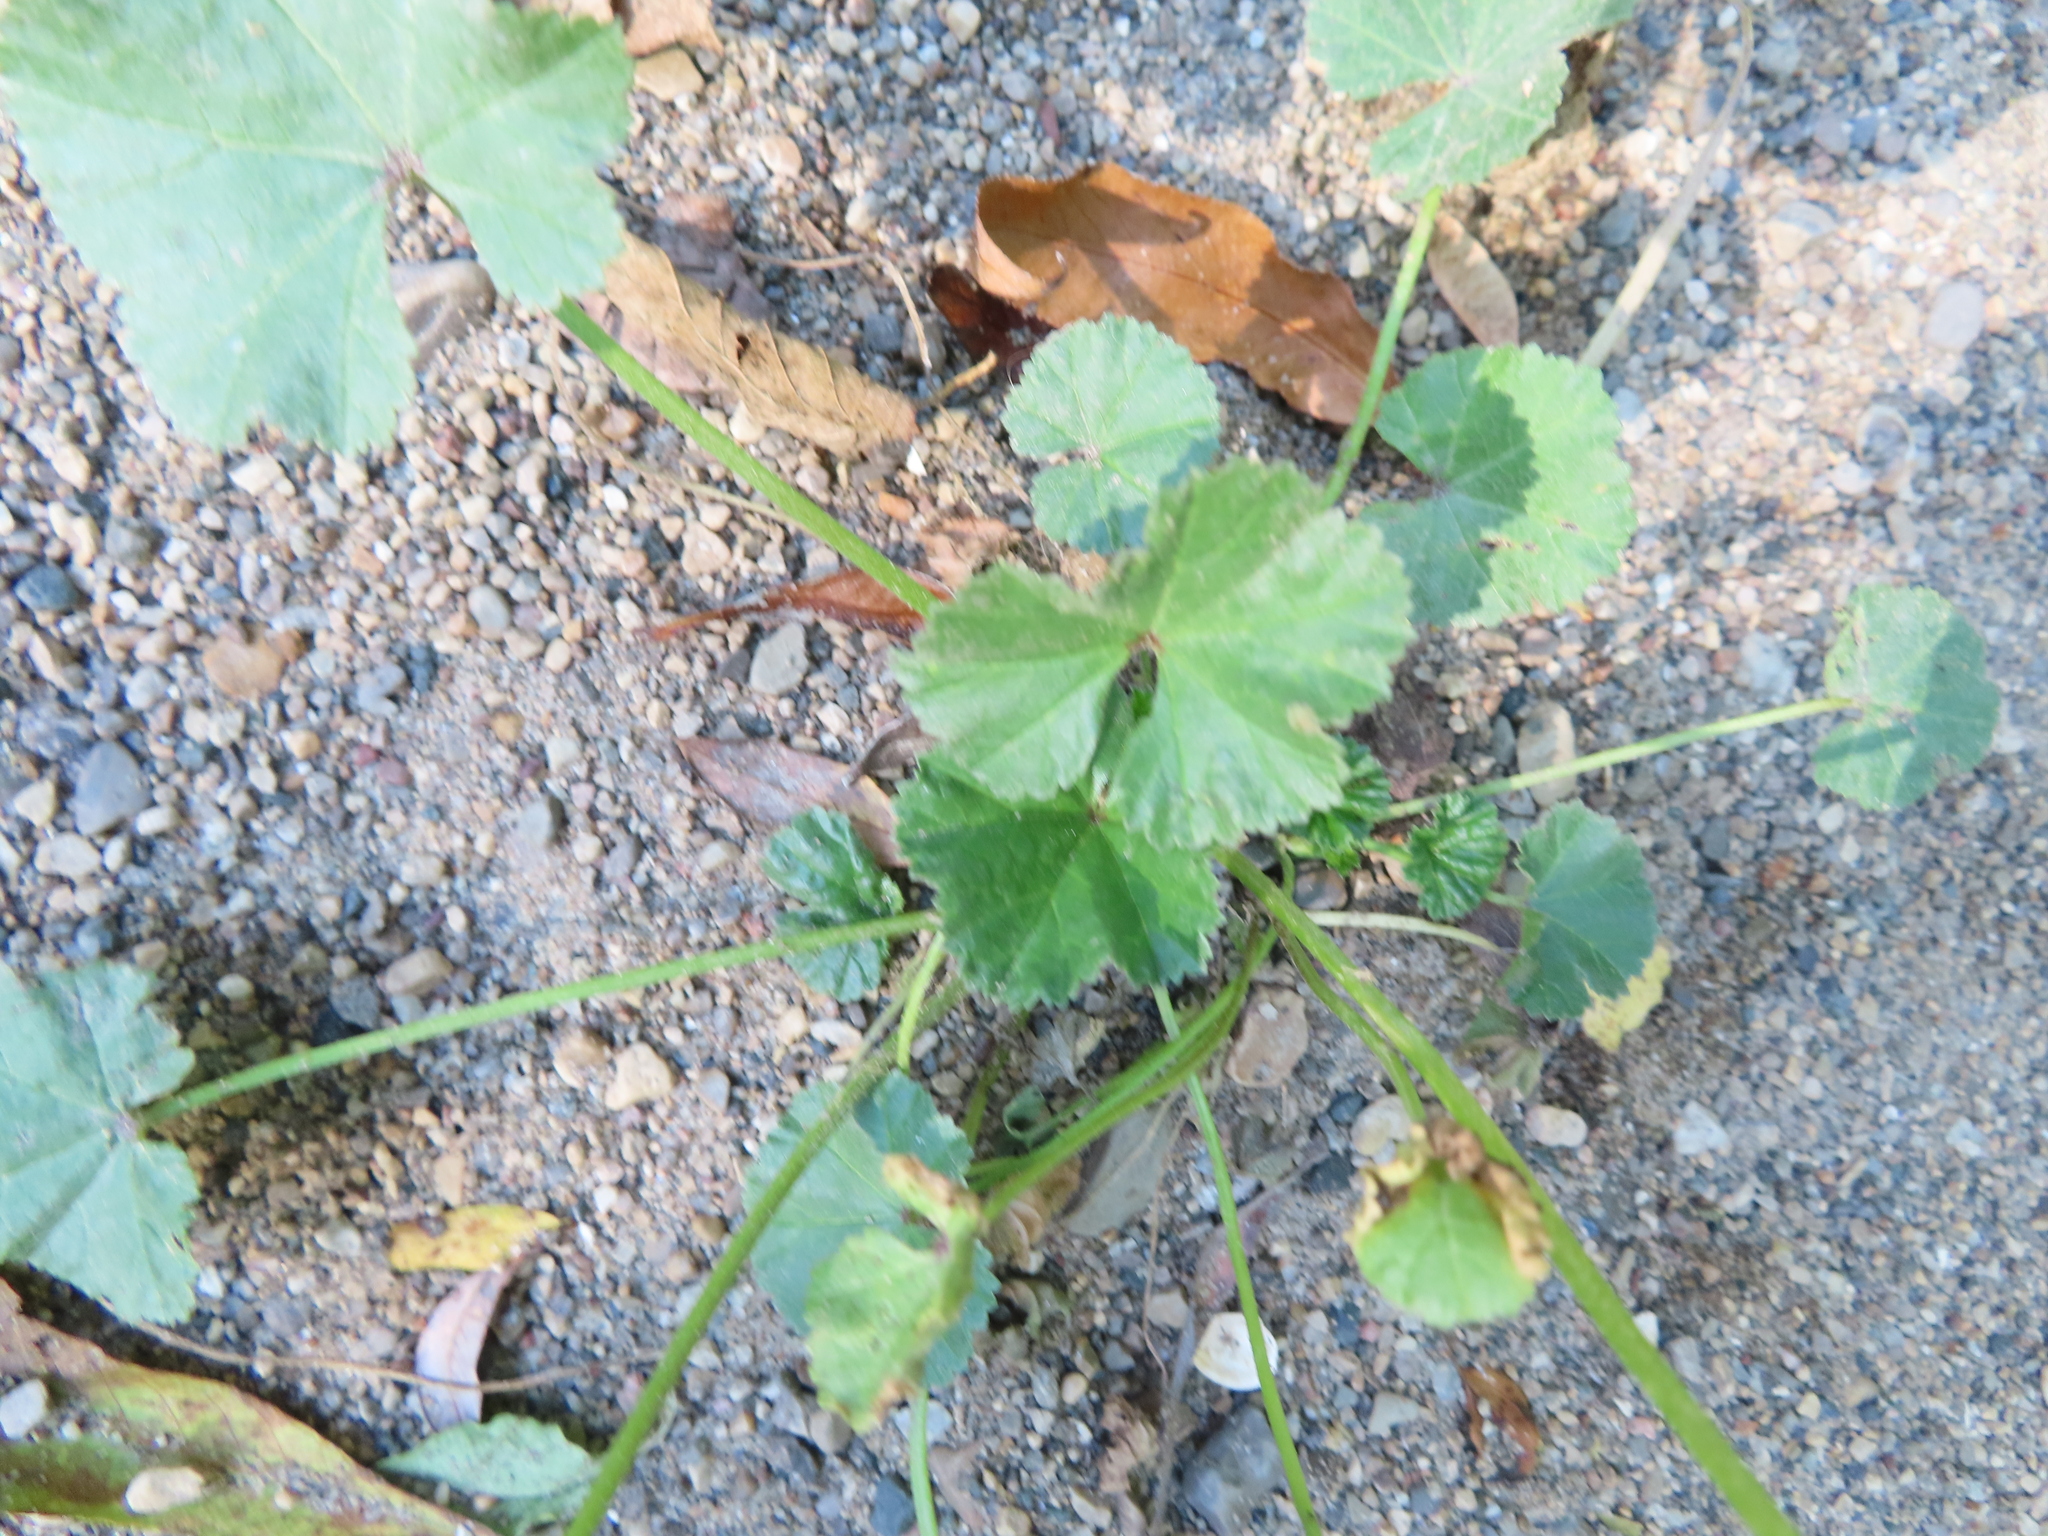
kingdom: Plantae
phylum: Tracheophyta
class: Magnoliopsida
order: Malvales
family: Malvaceae
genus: Malva
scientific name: Malva neglecta
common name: Common mallow
